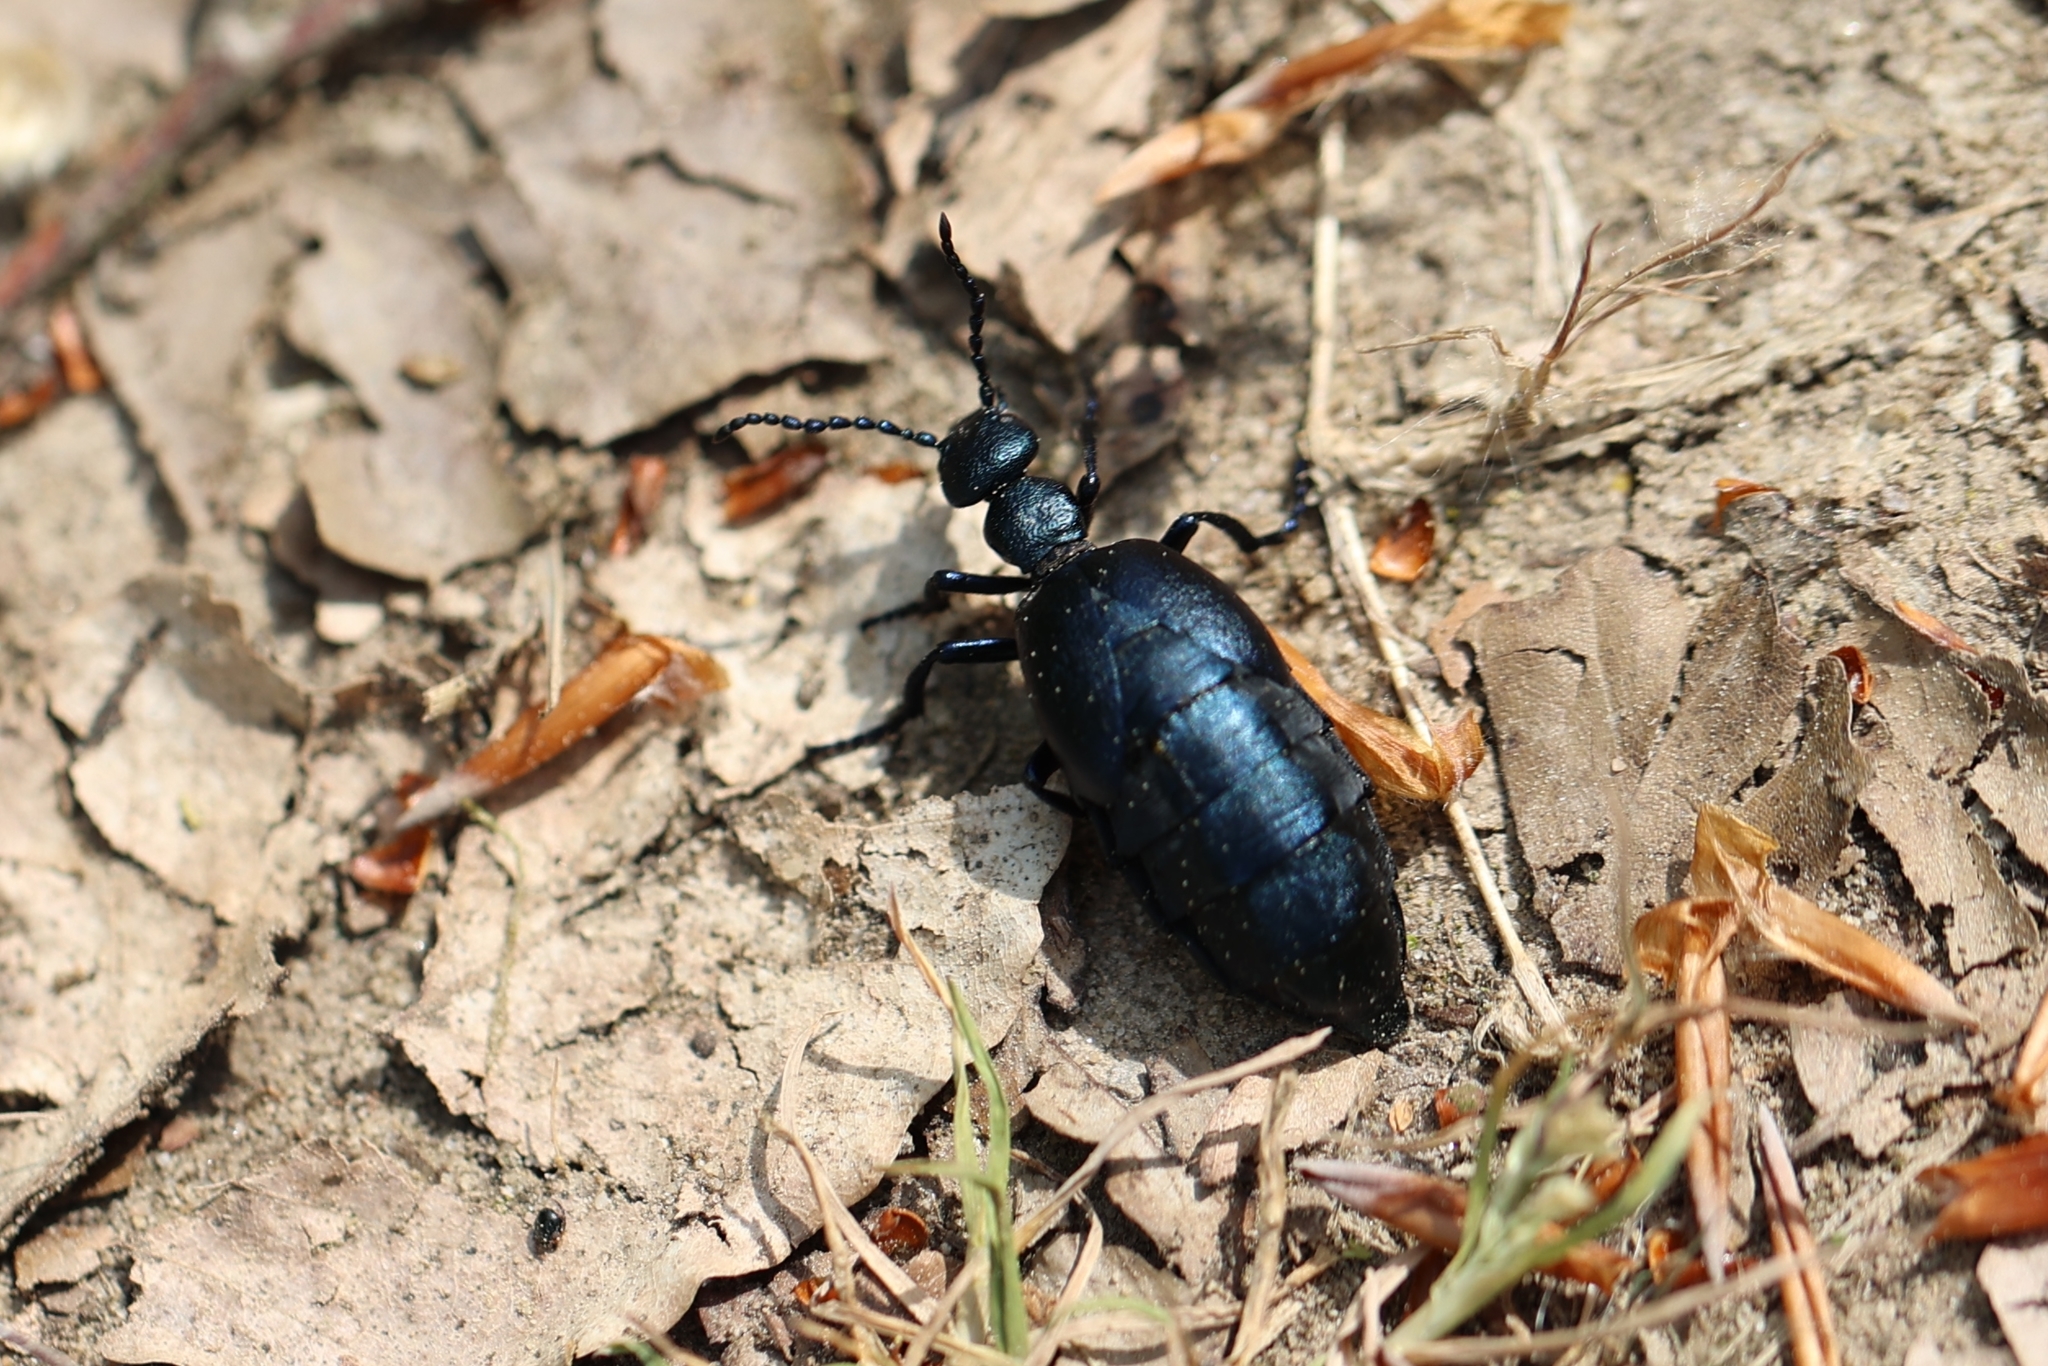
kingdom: Animalia
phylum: Arthropoda
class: Insecta
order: Coleoptera
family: Meloidae
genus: Meloe
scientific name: Meloe violaceus
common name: Violet oil-beetle
